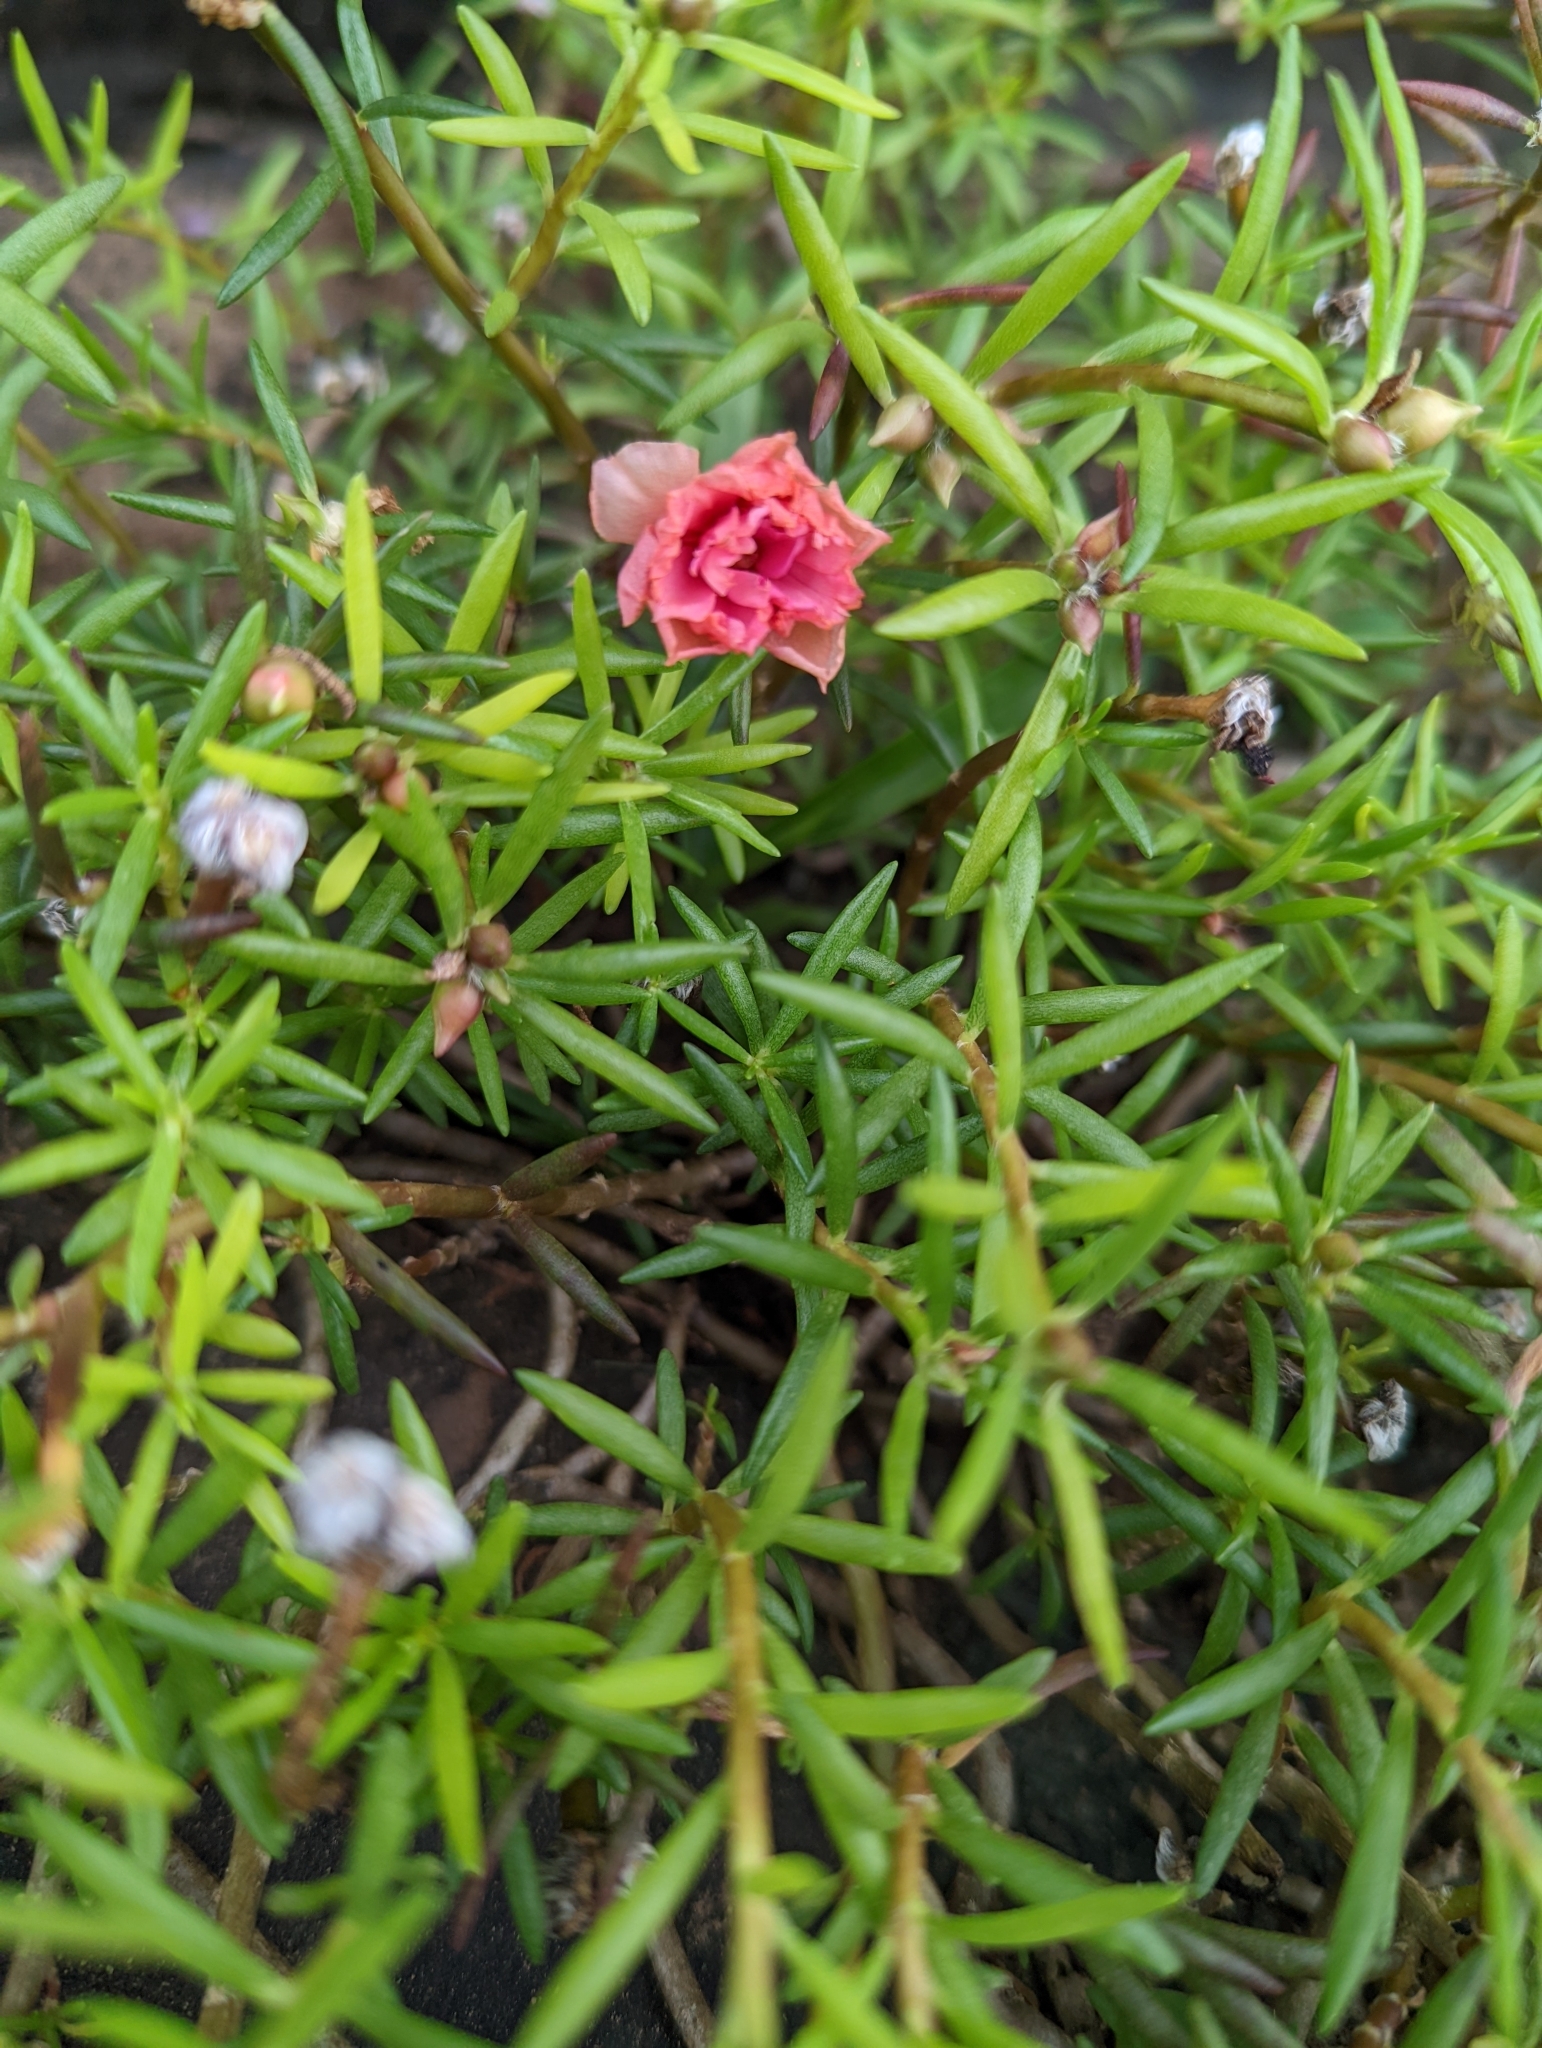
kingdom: Plantae
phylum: Tracheophyta
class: Magnoliopsida
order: Caryophyllales
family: Portulacaceae
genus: Portulaca
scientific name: Portulaca grandiflora
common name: Moss-rose
